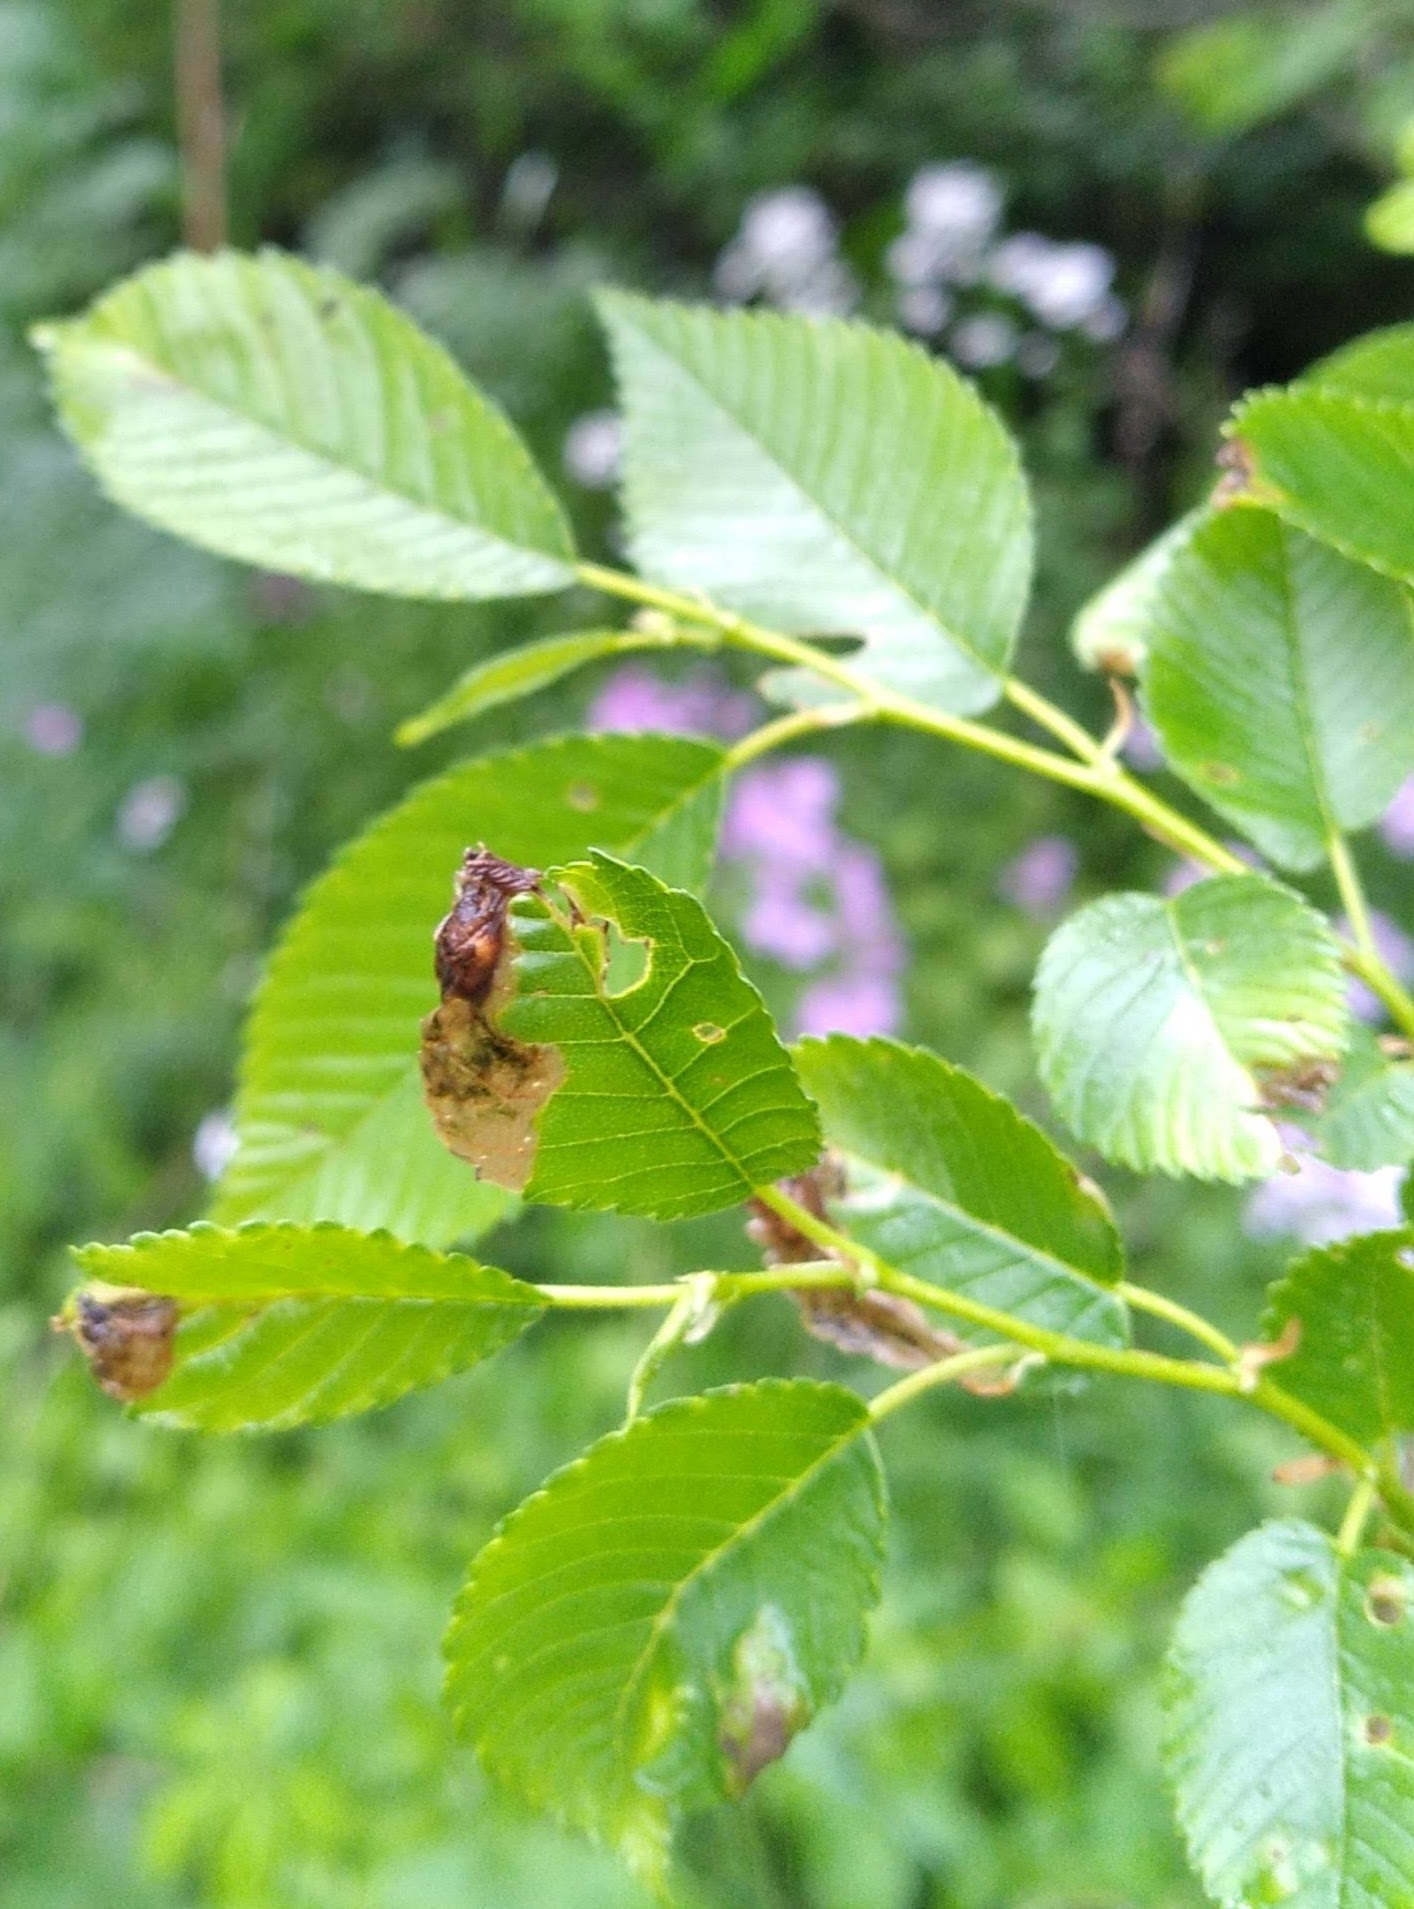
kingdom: Animalia
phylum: Arthropoda
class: Insecta
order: Coleoptera
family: Curculionidae
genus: Orchestes
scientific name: Orchestes steppensis
